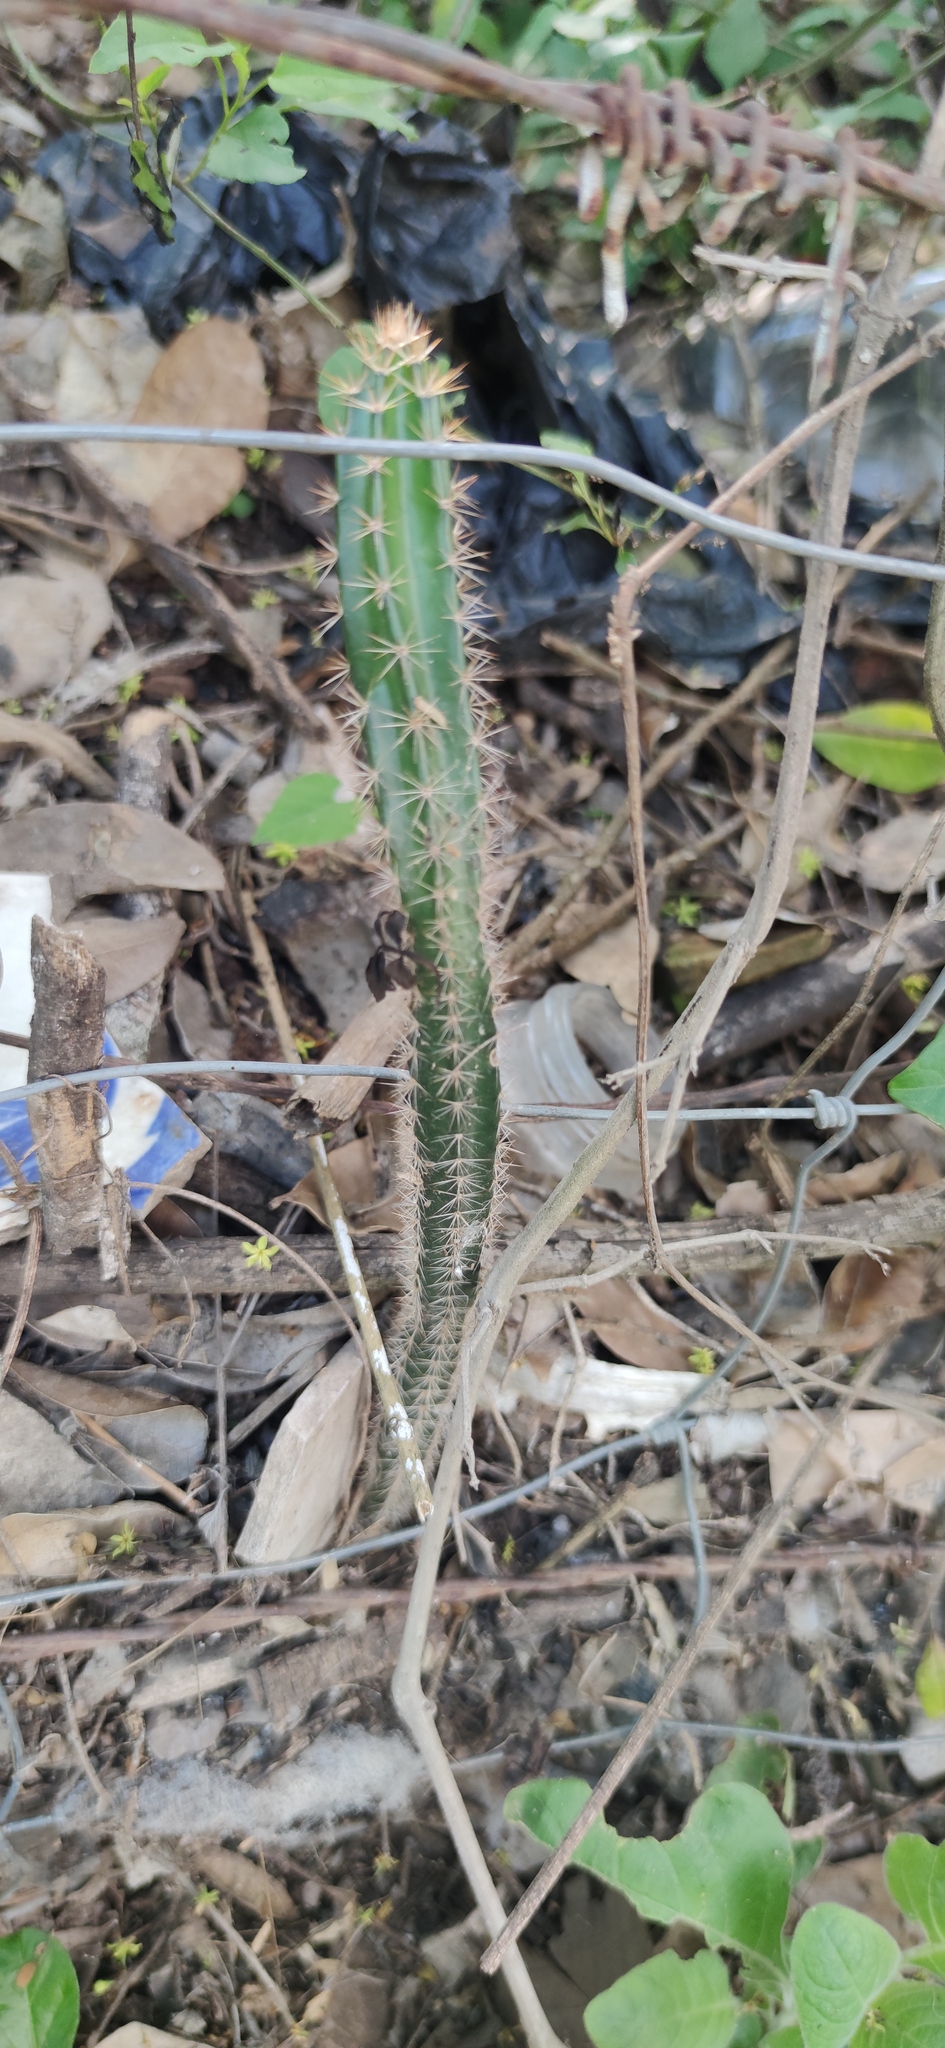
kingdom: Plantae
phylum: Tracheophyta
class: Magnoliopsida
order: Caryophyllales
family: Cactaceae
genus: Acanthocereus
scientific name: Acanthocereus tetragonus
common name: Triangle cactus
